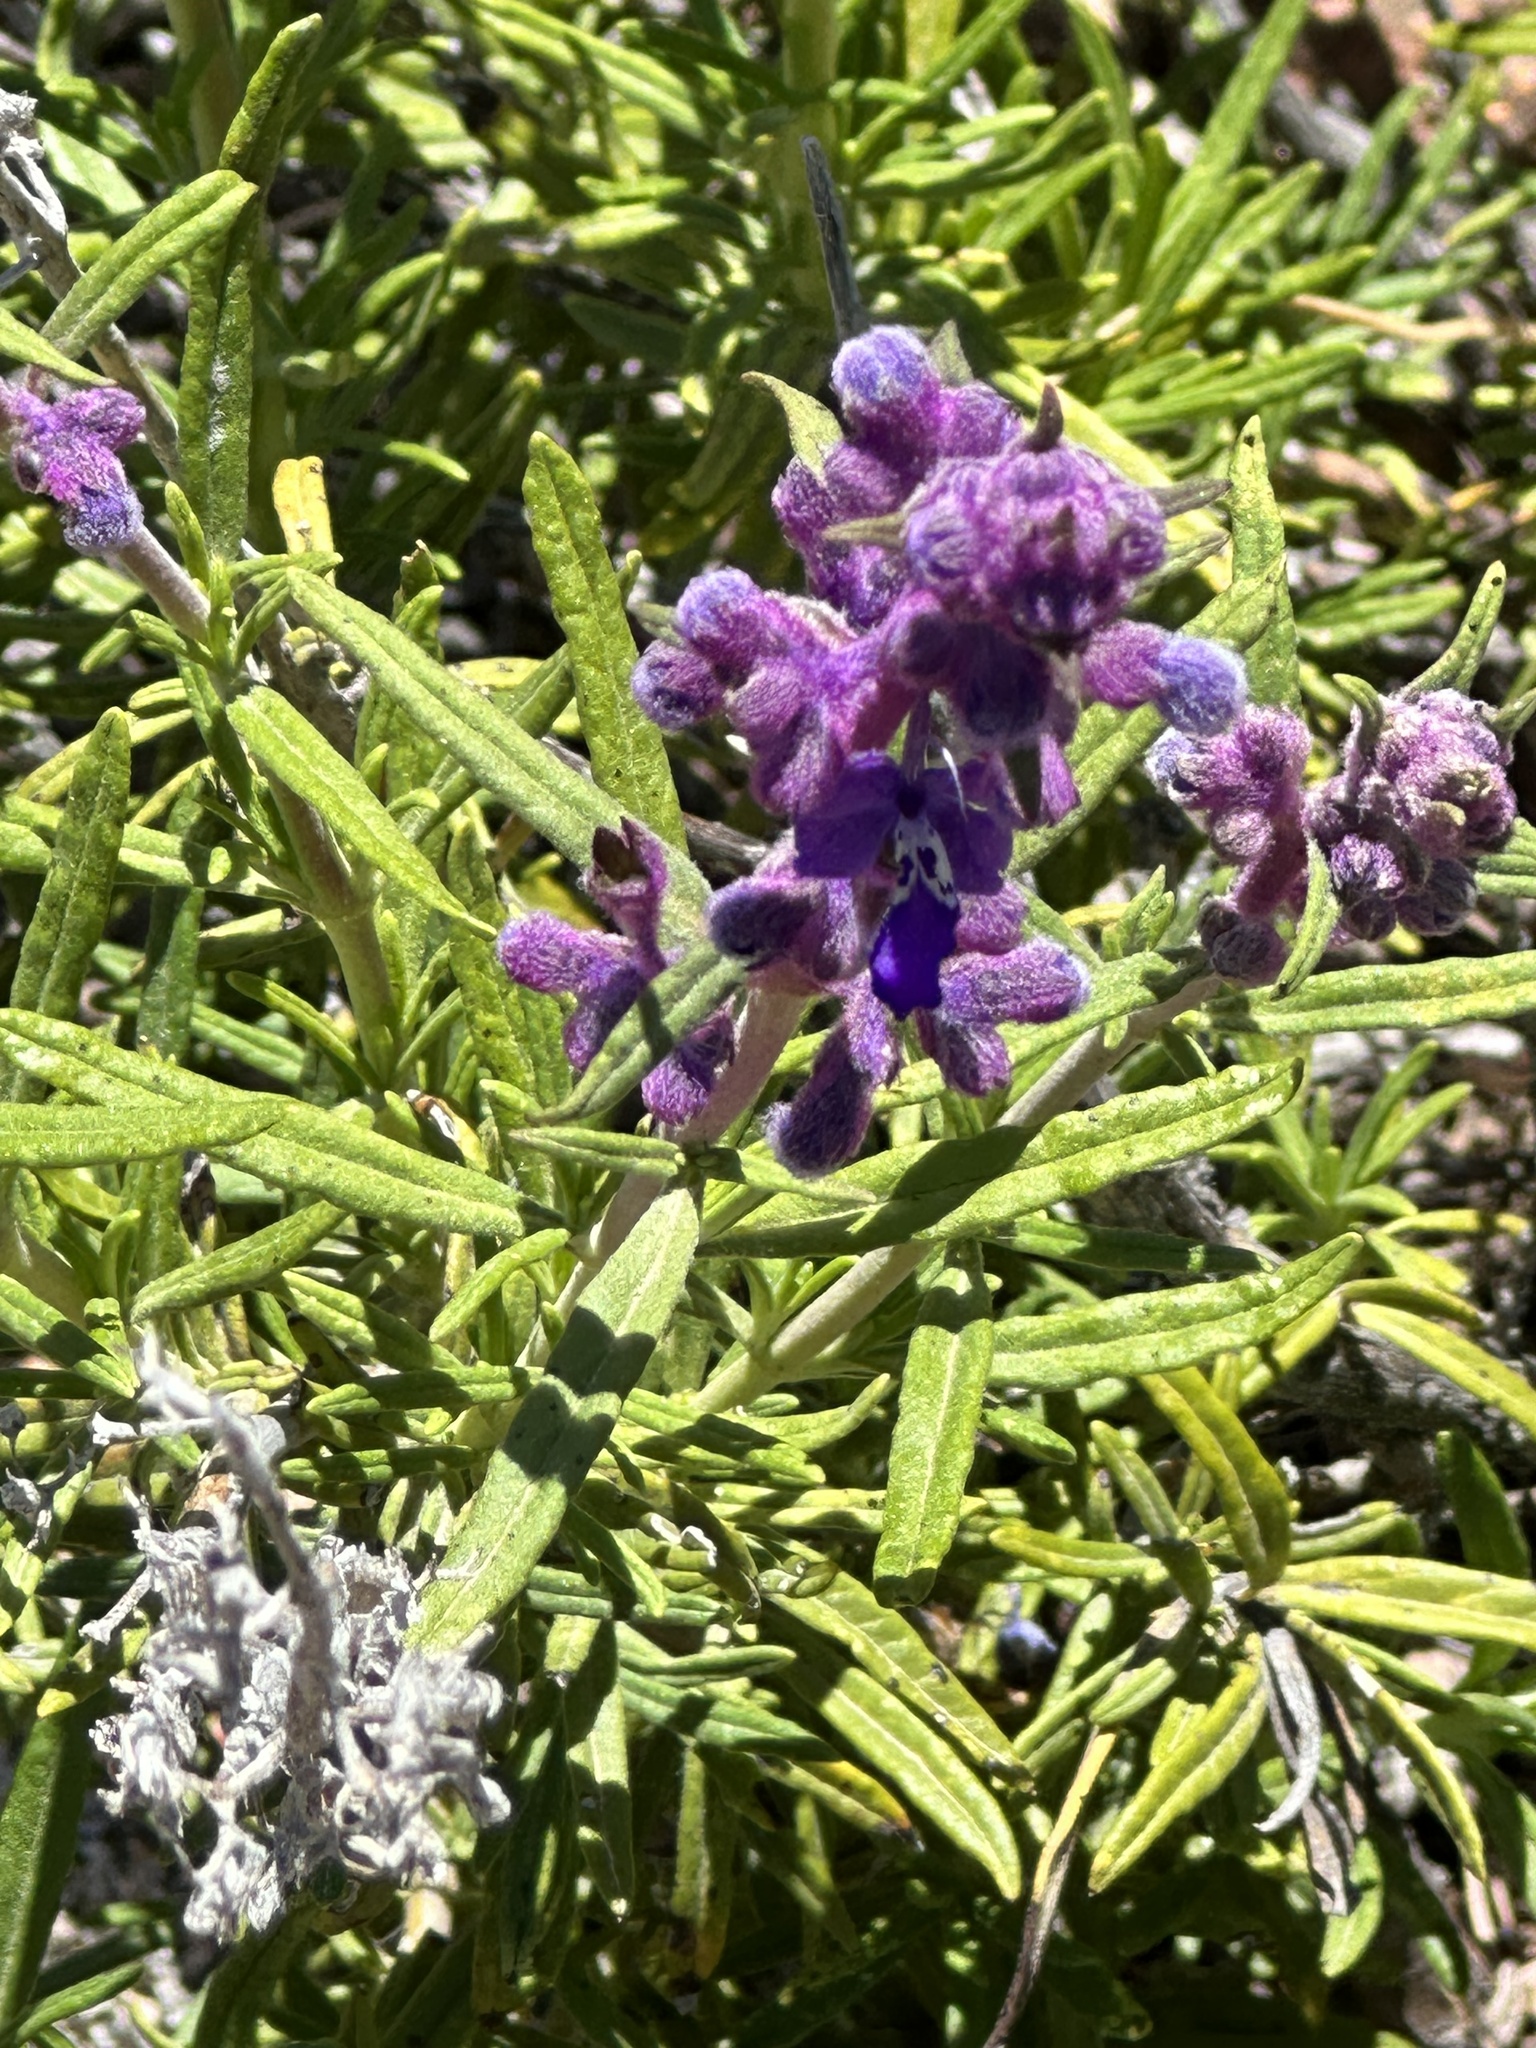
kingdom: Plantae
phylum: Tracheophyta
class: Magnoliopsida
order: Lamiales
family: Lamiaceae
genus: Trichostema
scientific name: Trichostema parishii
